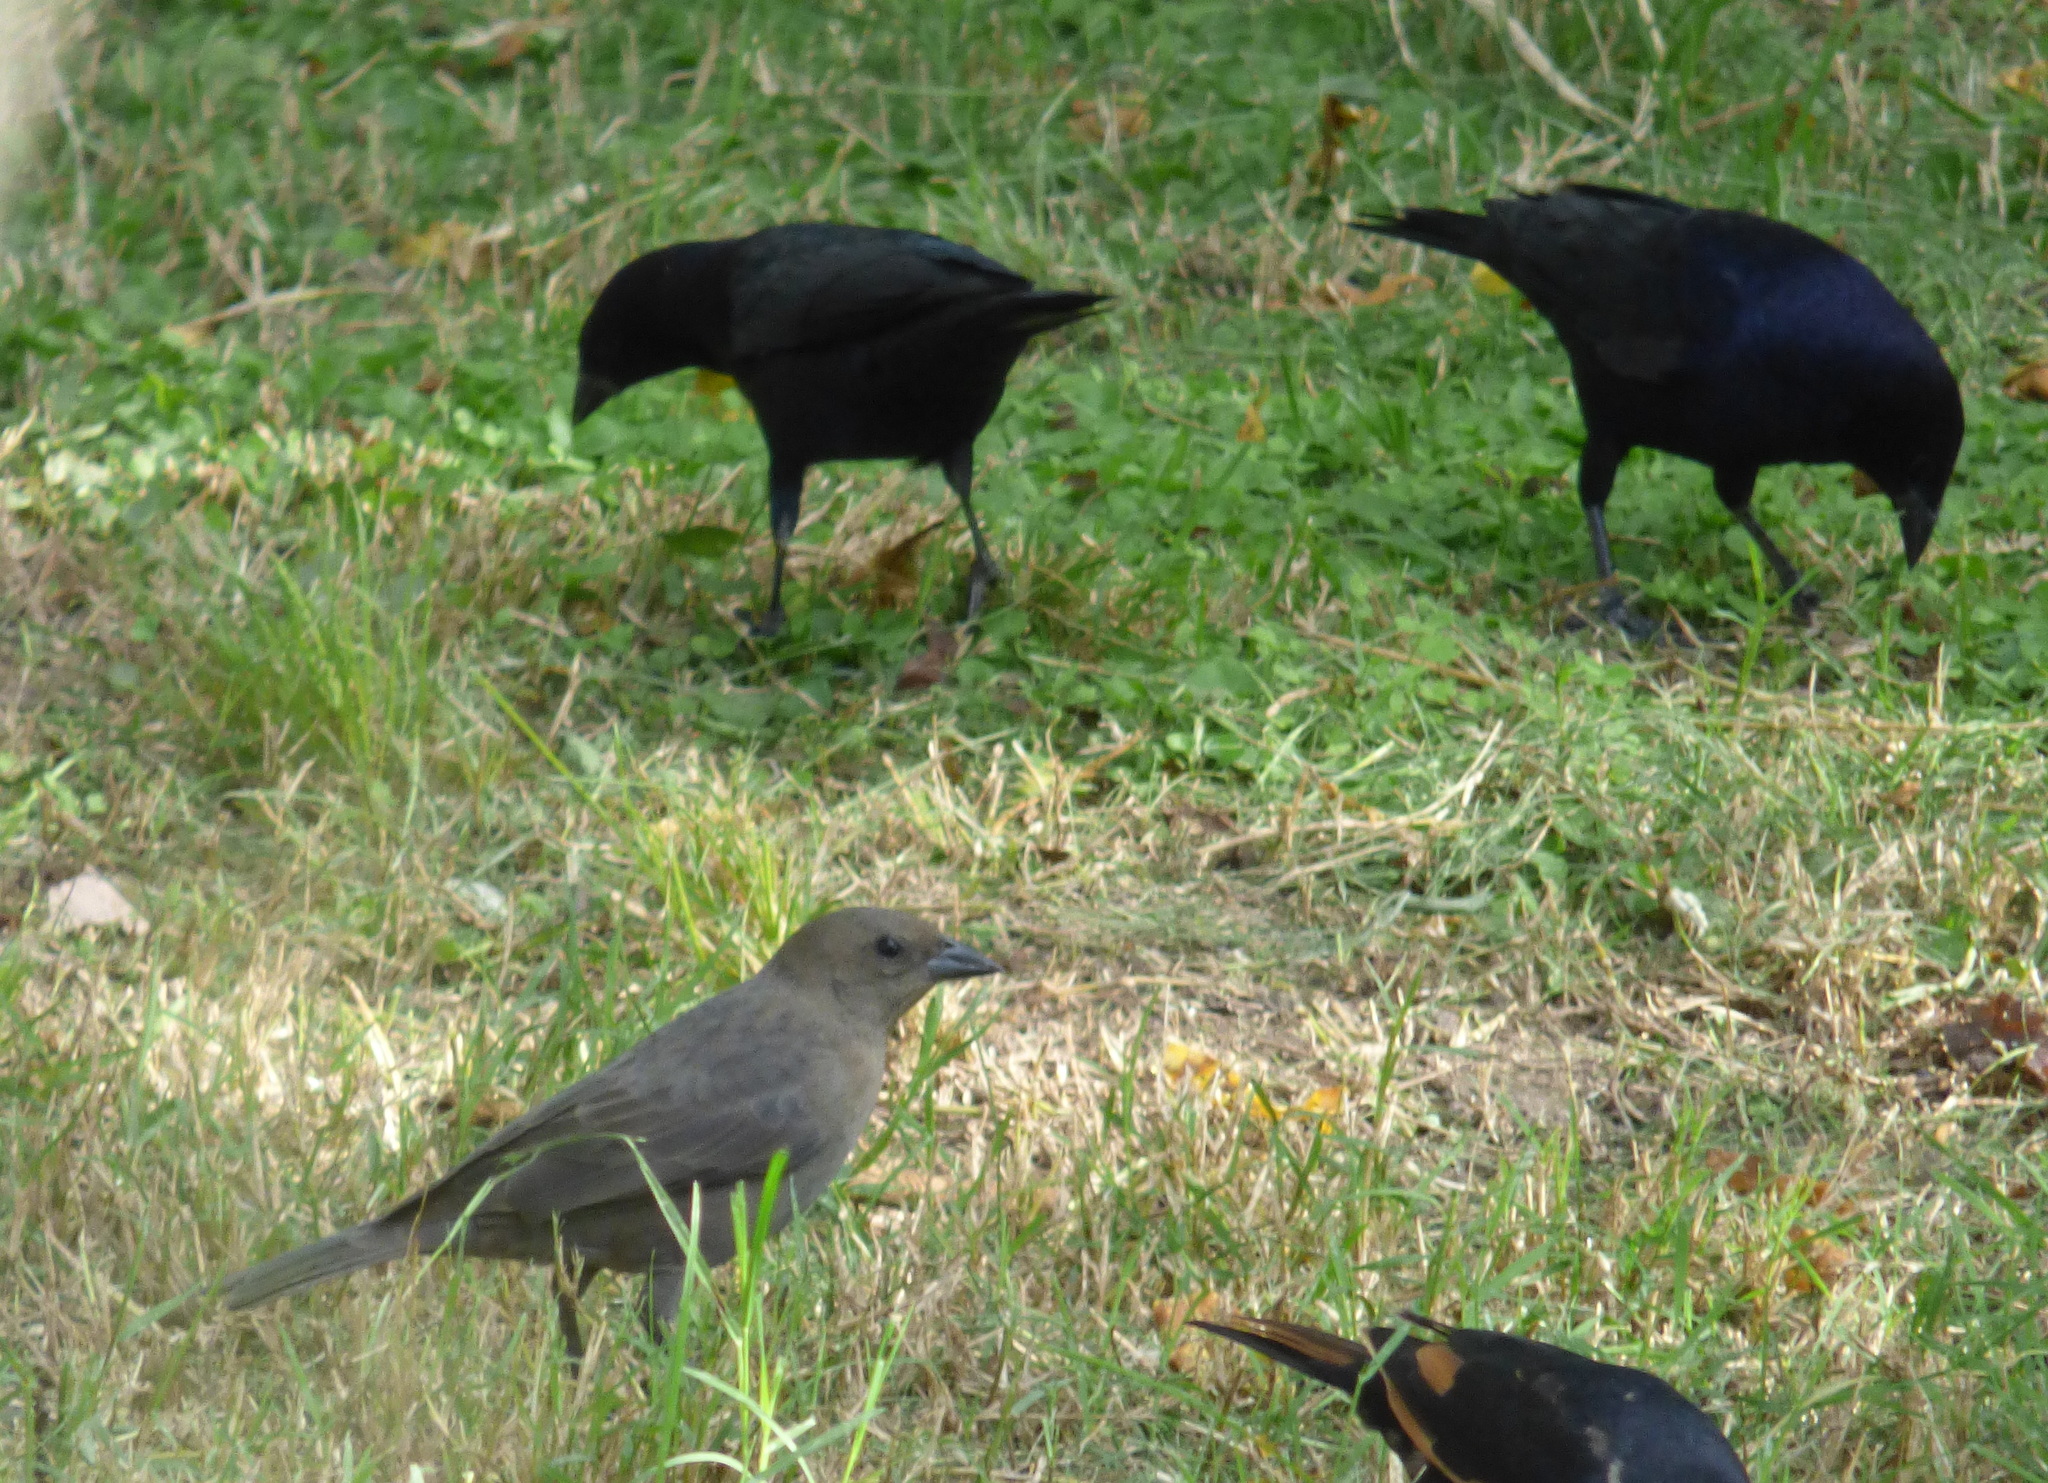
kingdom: Animalia
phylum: Chordata
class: Aves
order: Passeriformes
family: Icteridae
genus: Molothrus
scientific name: Molothrus bonariensis
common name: Shiny cowbird
